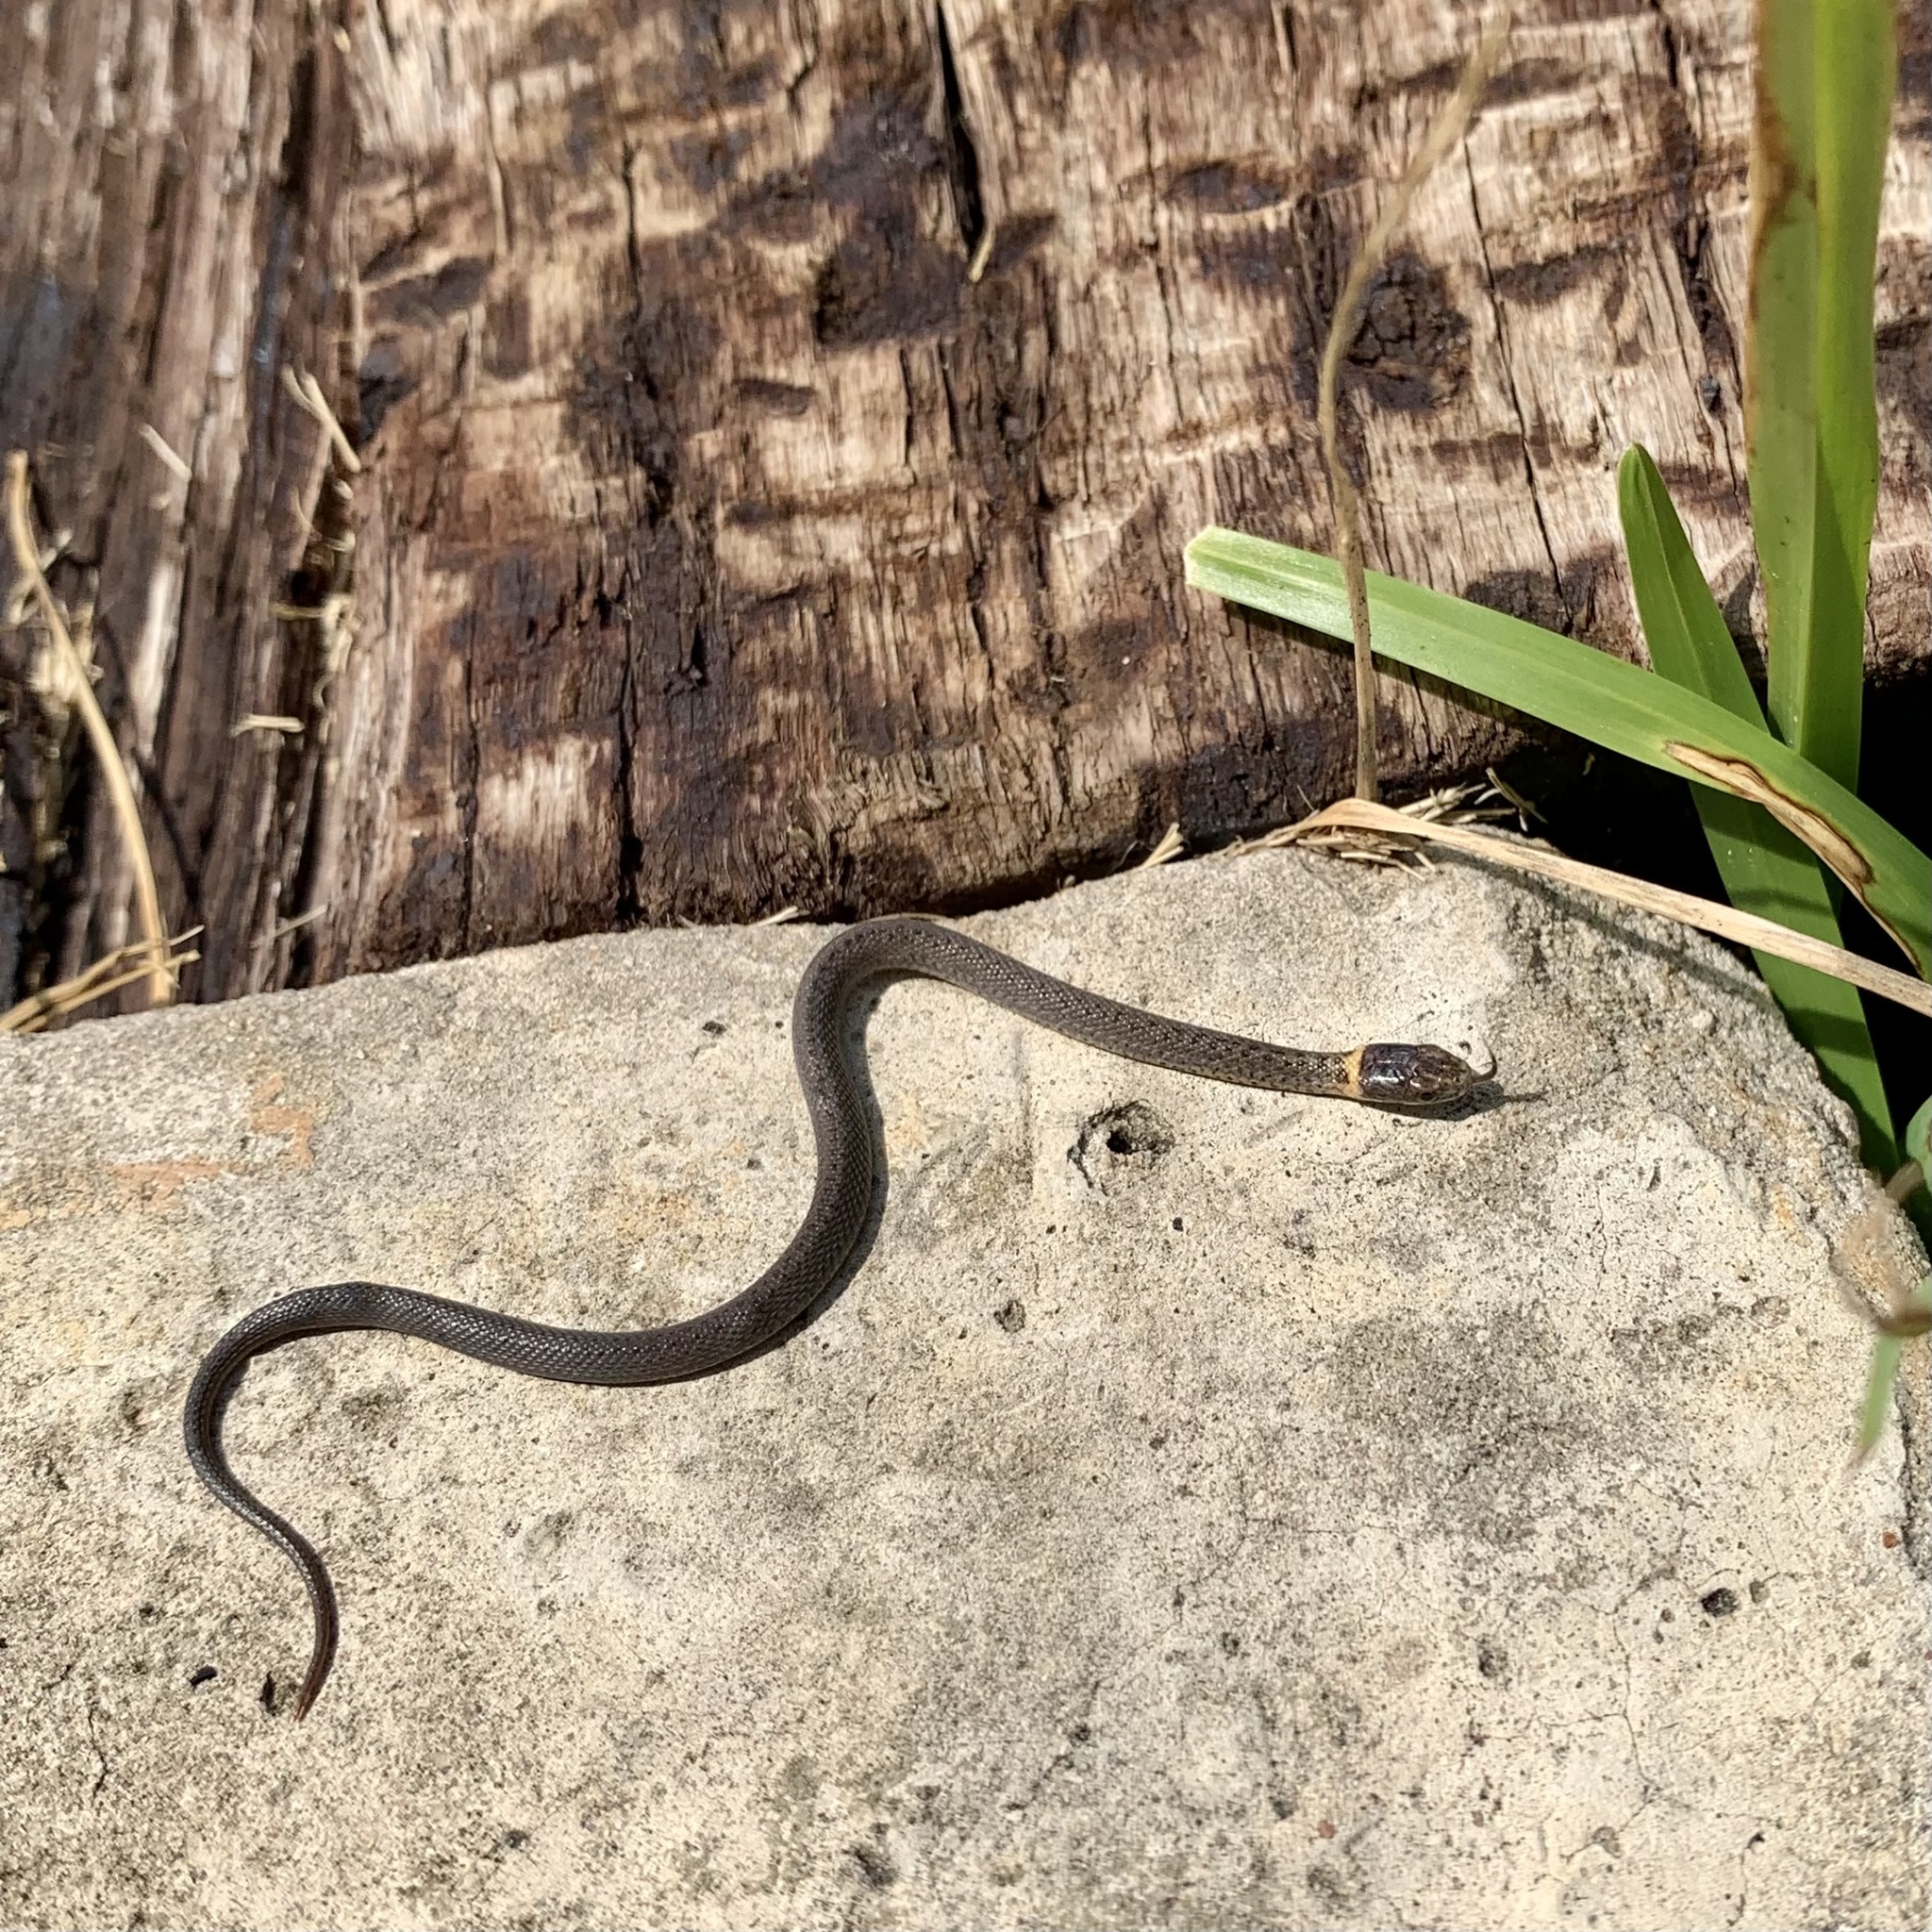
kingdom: Animalia
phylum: Chordata
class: Squamata
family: Colubridae
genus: Storeria
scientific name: Storeria occipitomaculata
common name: Redbelly snake
